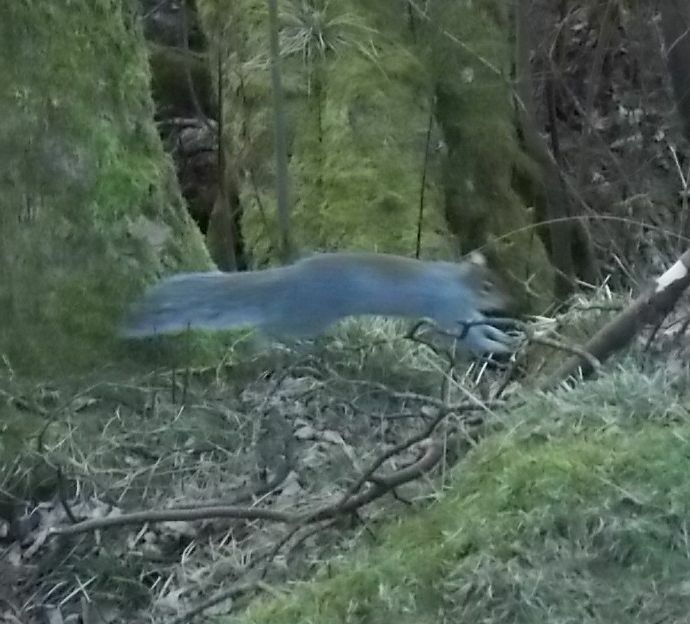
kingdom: Animalia
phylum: Chordata
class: Mammalia
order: Rodentia
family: Sciuridae
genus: Sciurus
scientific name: Sciurus carolinensis
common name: Eastern gray squirrel
